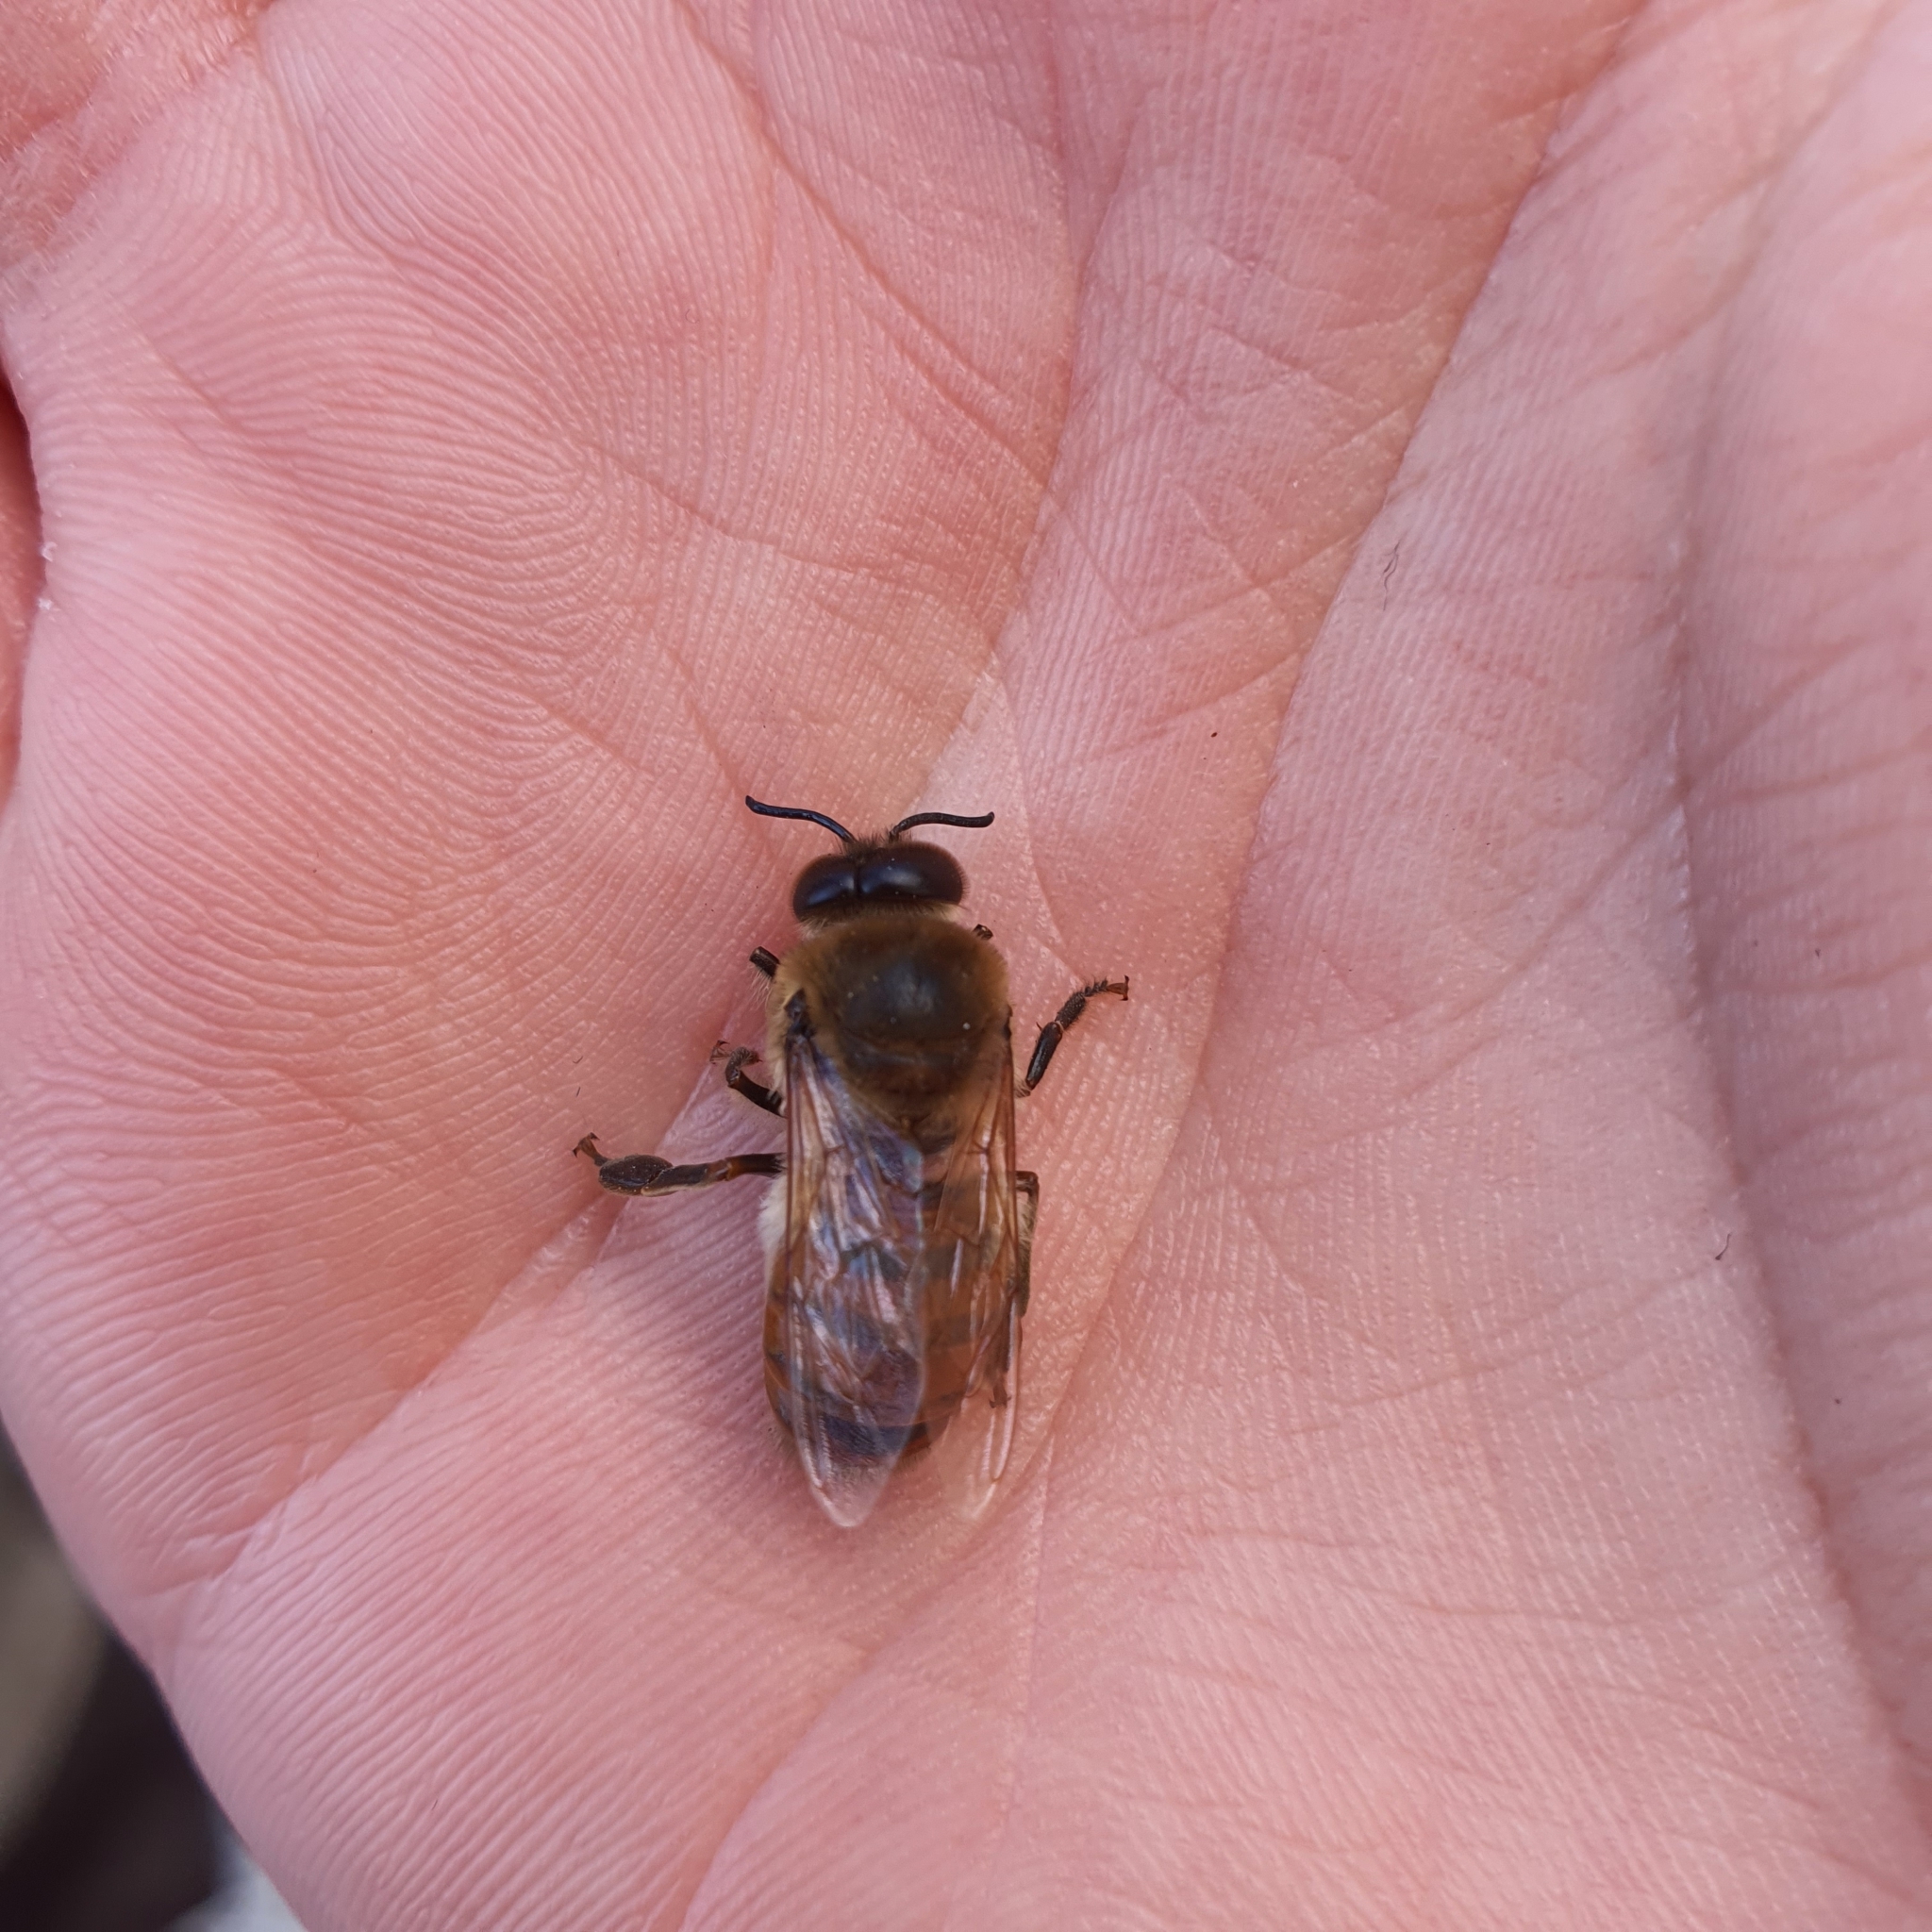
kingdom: Animalia
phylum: Arthropoda
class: Insecta
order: Hymenoptera
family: Apidae
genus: Apis
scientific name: Apis mellifera
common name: Honey bee
